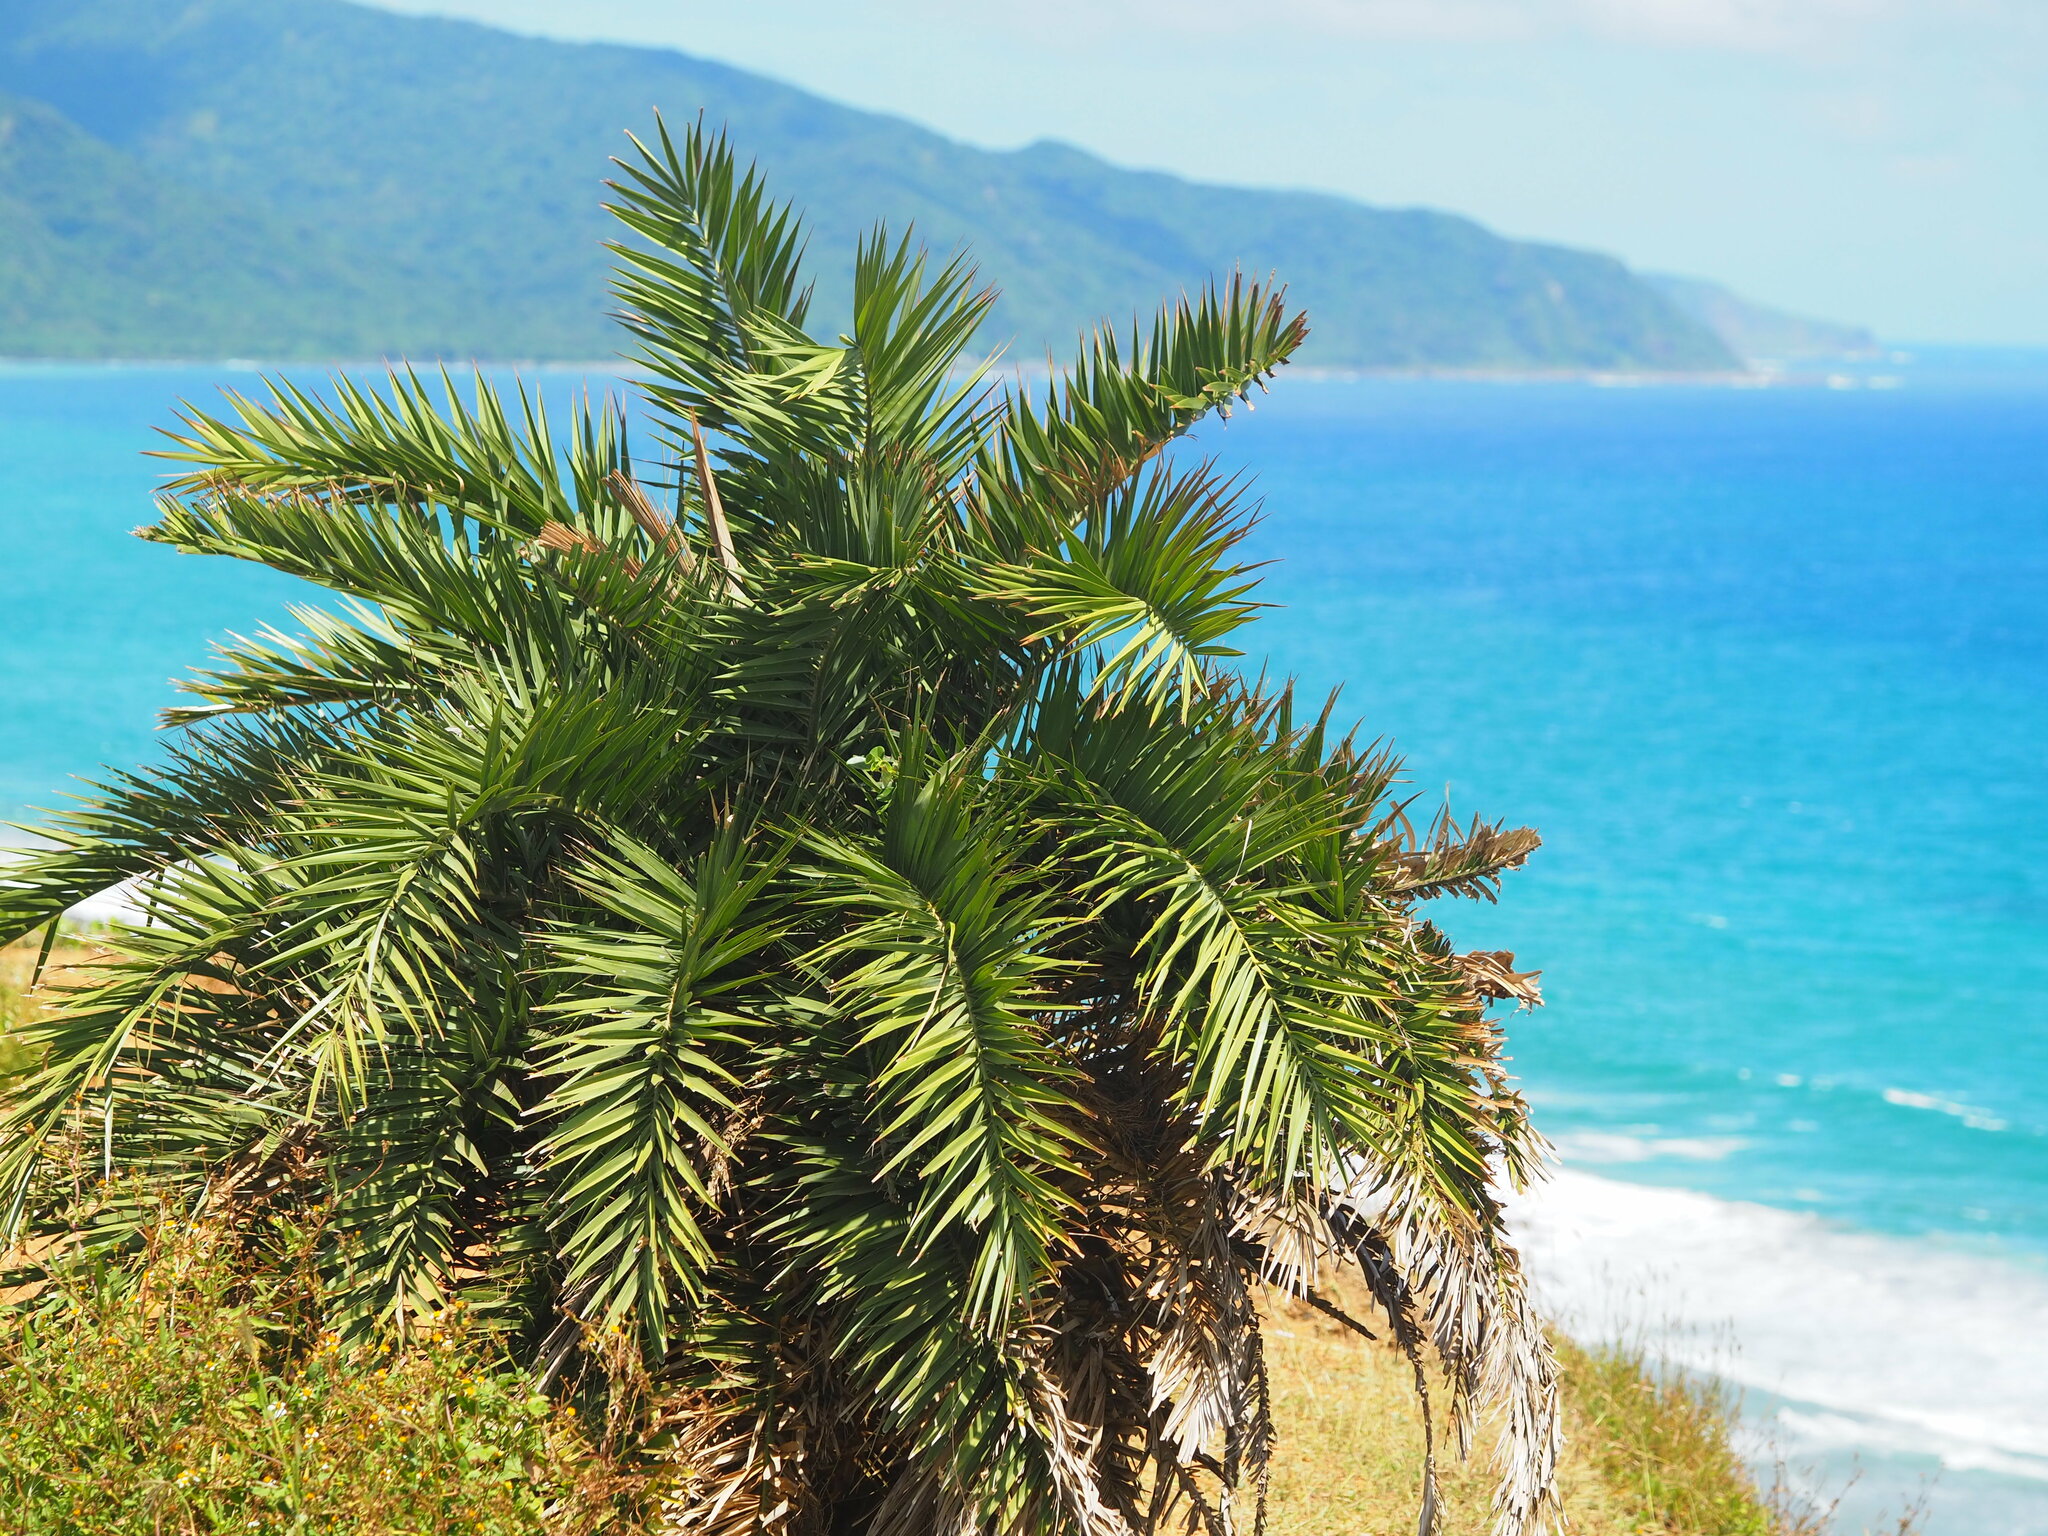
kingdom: Plantae
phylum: Tracheophyta
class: Liliopsida
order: Arecales
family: Arecaceae
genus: Phoenix
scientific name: Phoenix loureiroi
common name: Loureiro's palm
